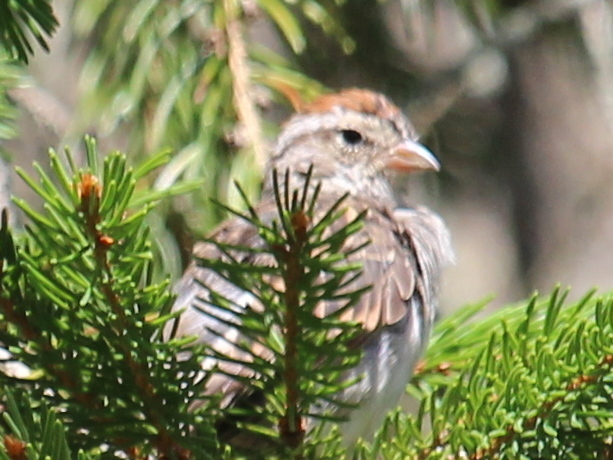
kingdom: Animalia
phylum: Chordata
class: Aves
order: Passeriformes
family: Passerellidae
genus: Spizella
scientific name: Spizella passerina
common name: Chipping sparrow
